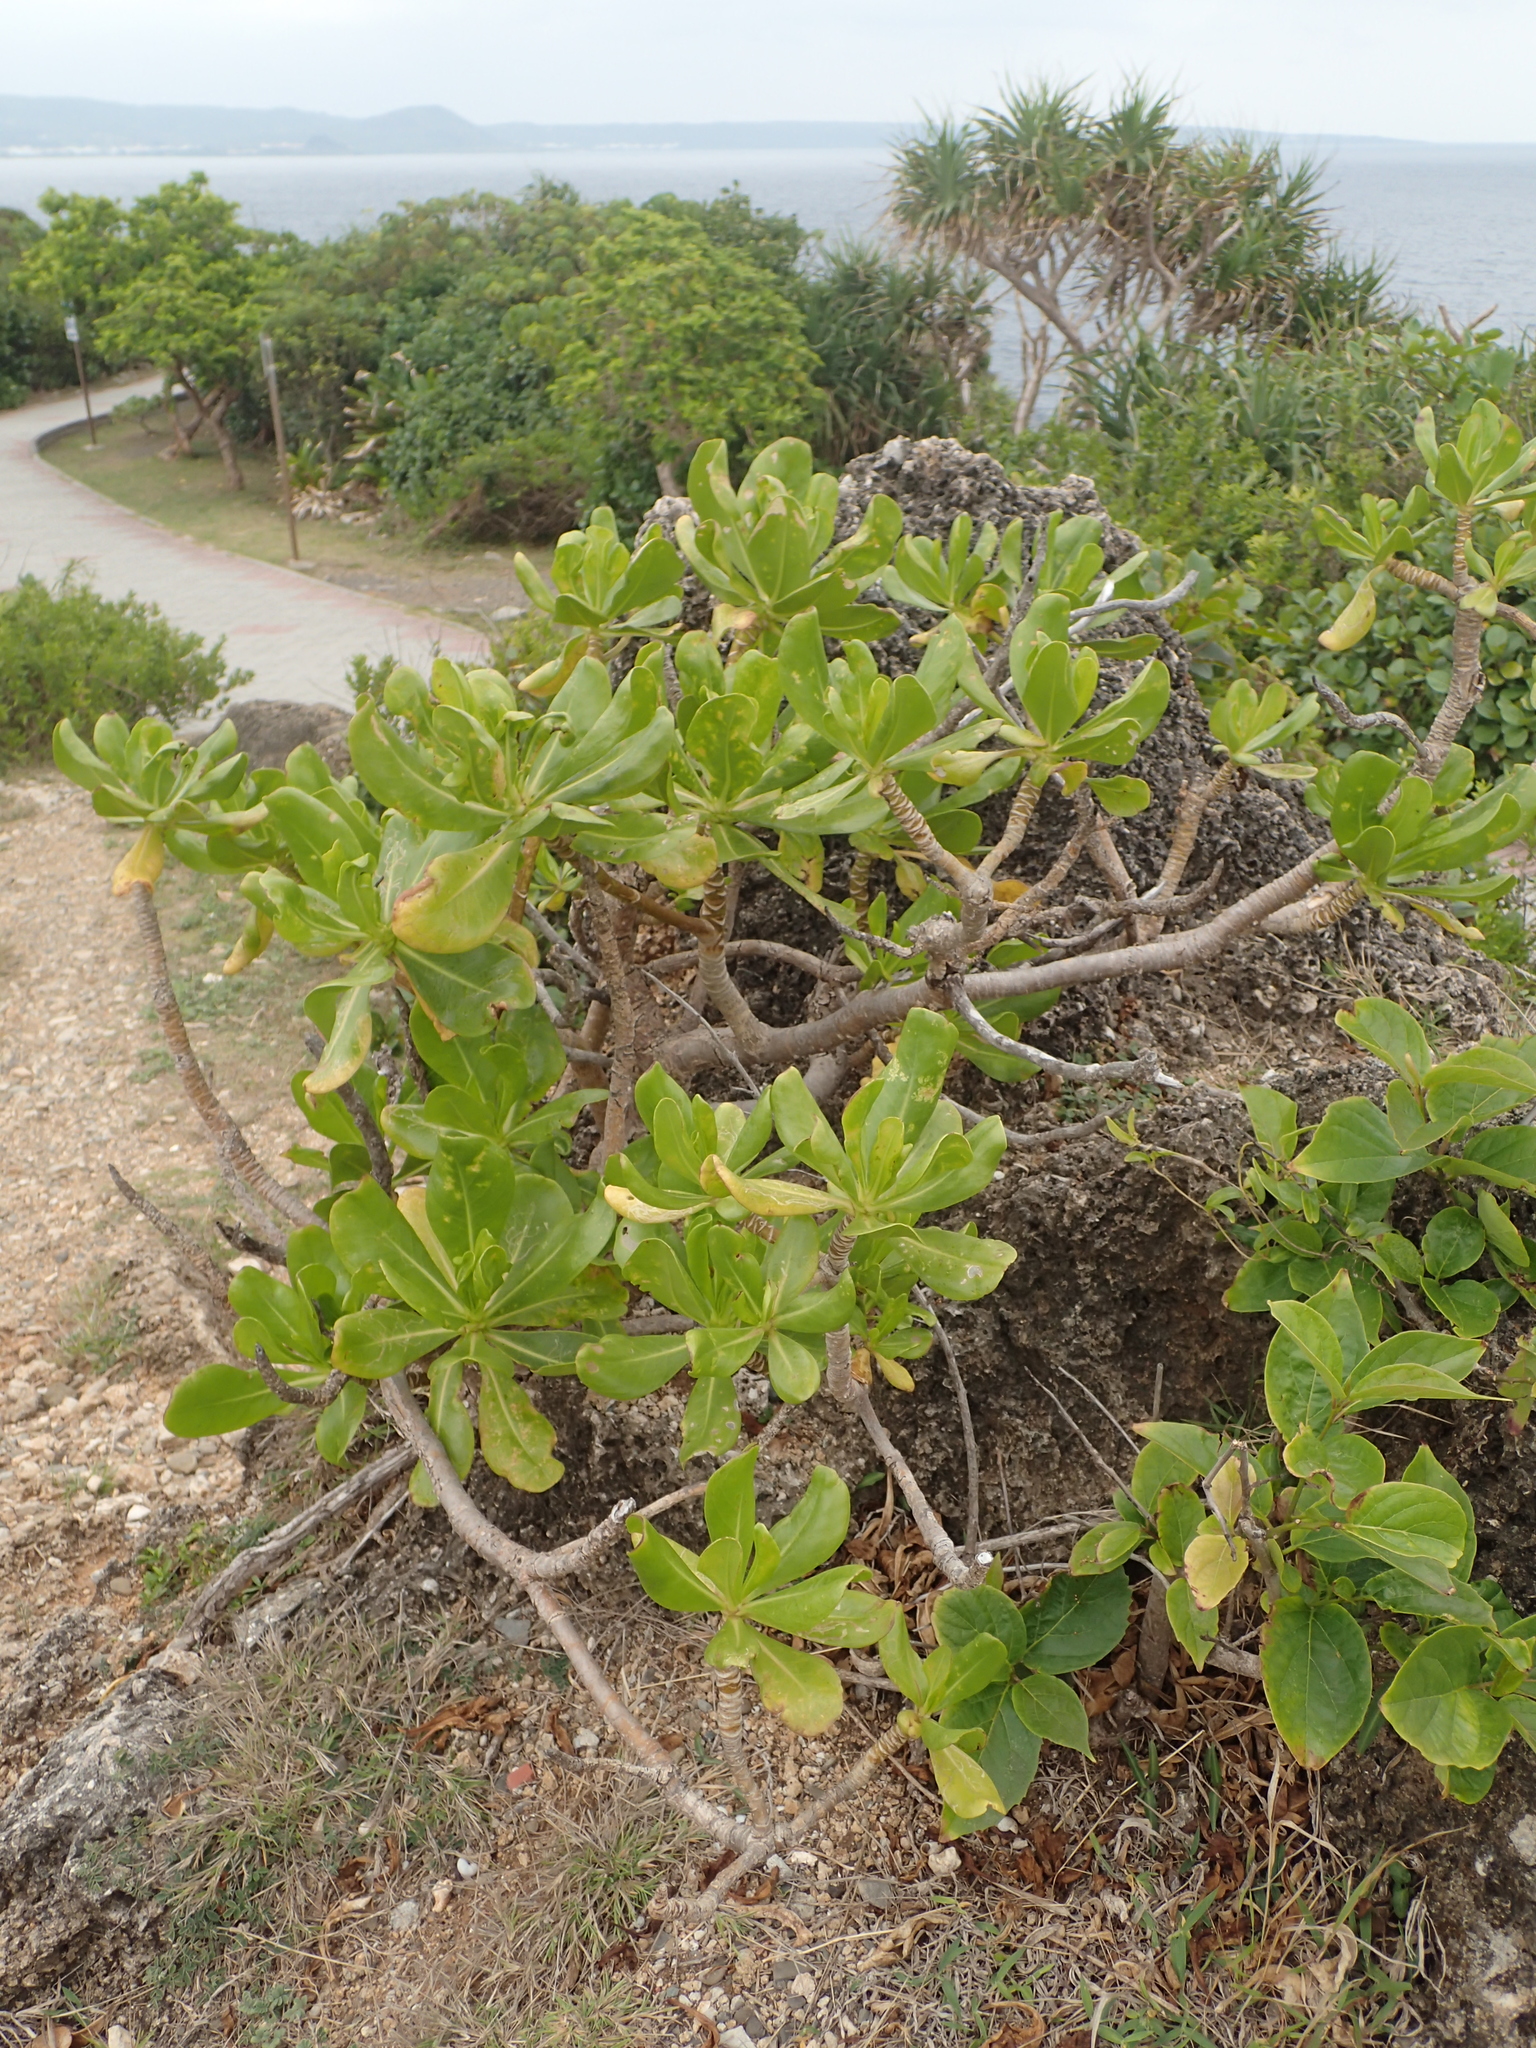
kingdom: Plantae
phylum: Tracheophyta
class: Magnoliopsida
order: Asterales
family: Goodeniaceae
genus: Scaevola
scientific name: Scaevola taccada
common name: Sea lettucetree
